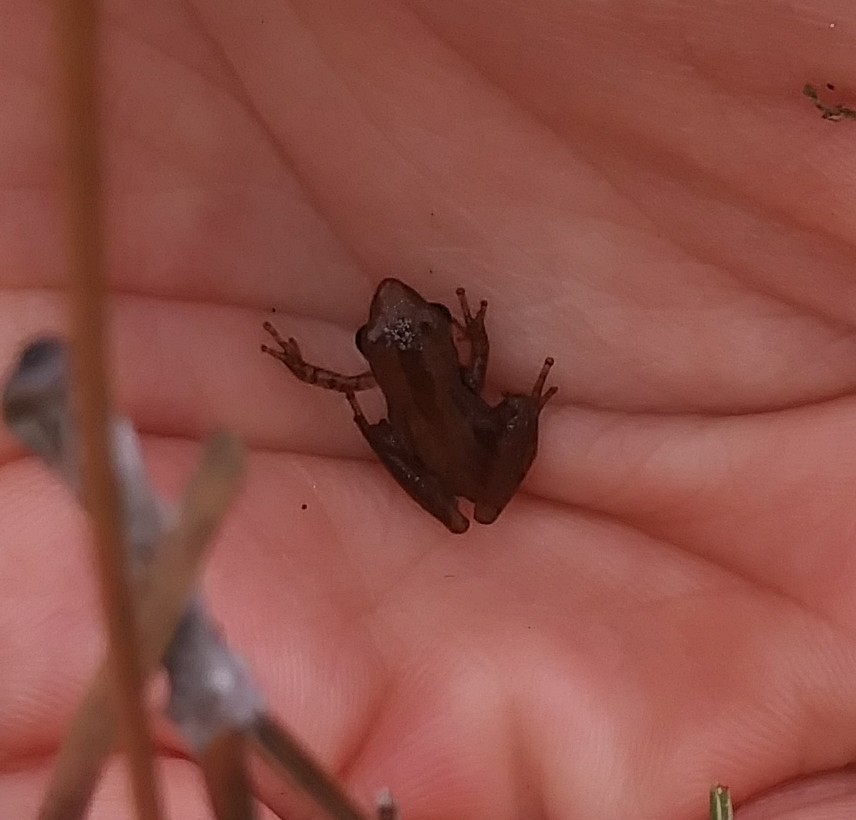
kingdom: Animalia
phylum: Chordata
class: Amphibia
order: Anura
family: Hylidae
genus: Pseudacris
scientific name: Pseudacris ocularis
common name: Little grass frog
